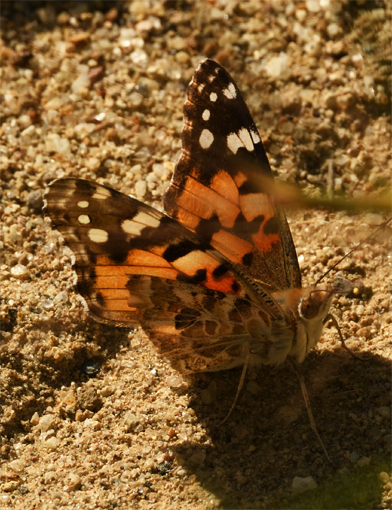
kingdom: Animalia
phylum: Arthropoda
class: Insecta
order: Lepidoptera
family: Nymphalidae
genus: Vanessa
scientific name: Vanessa cardui
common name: Painted lady
